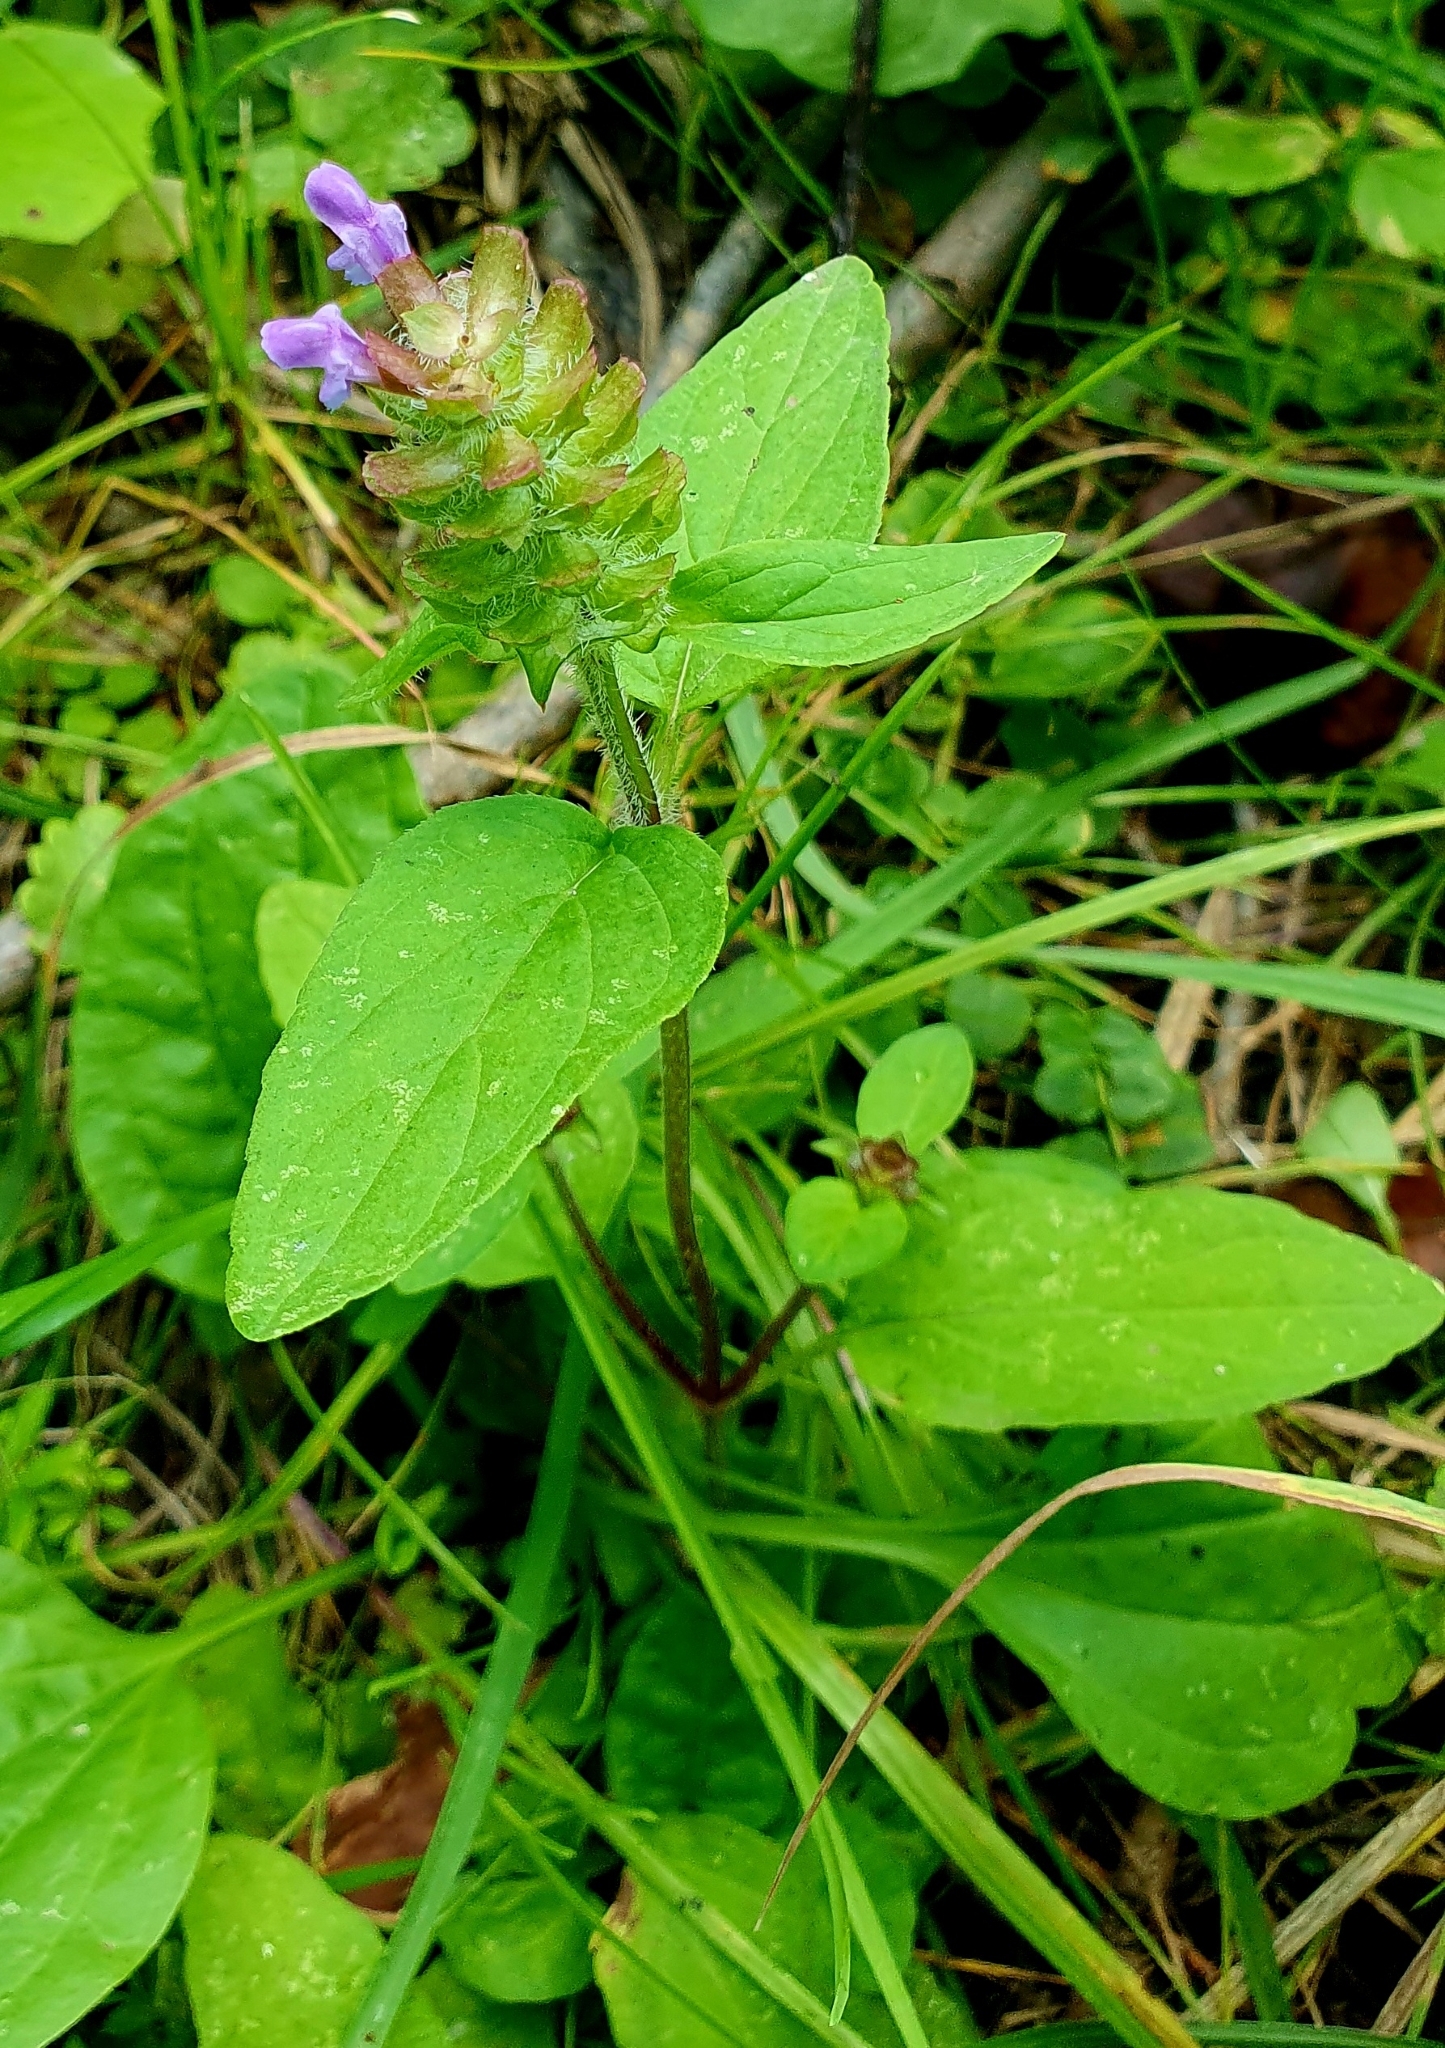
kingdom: Plantae
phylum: Tracheophyta
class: Magnoliopsida
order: Lamiales
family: Lamiaceae
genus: Prunella
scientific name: Prunella vulgaris
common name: Heal-all
